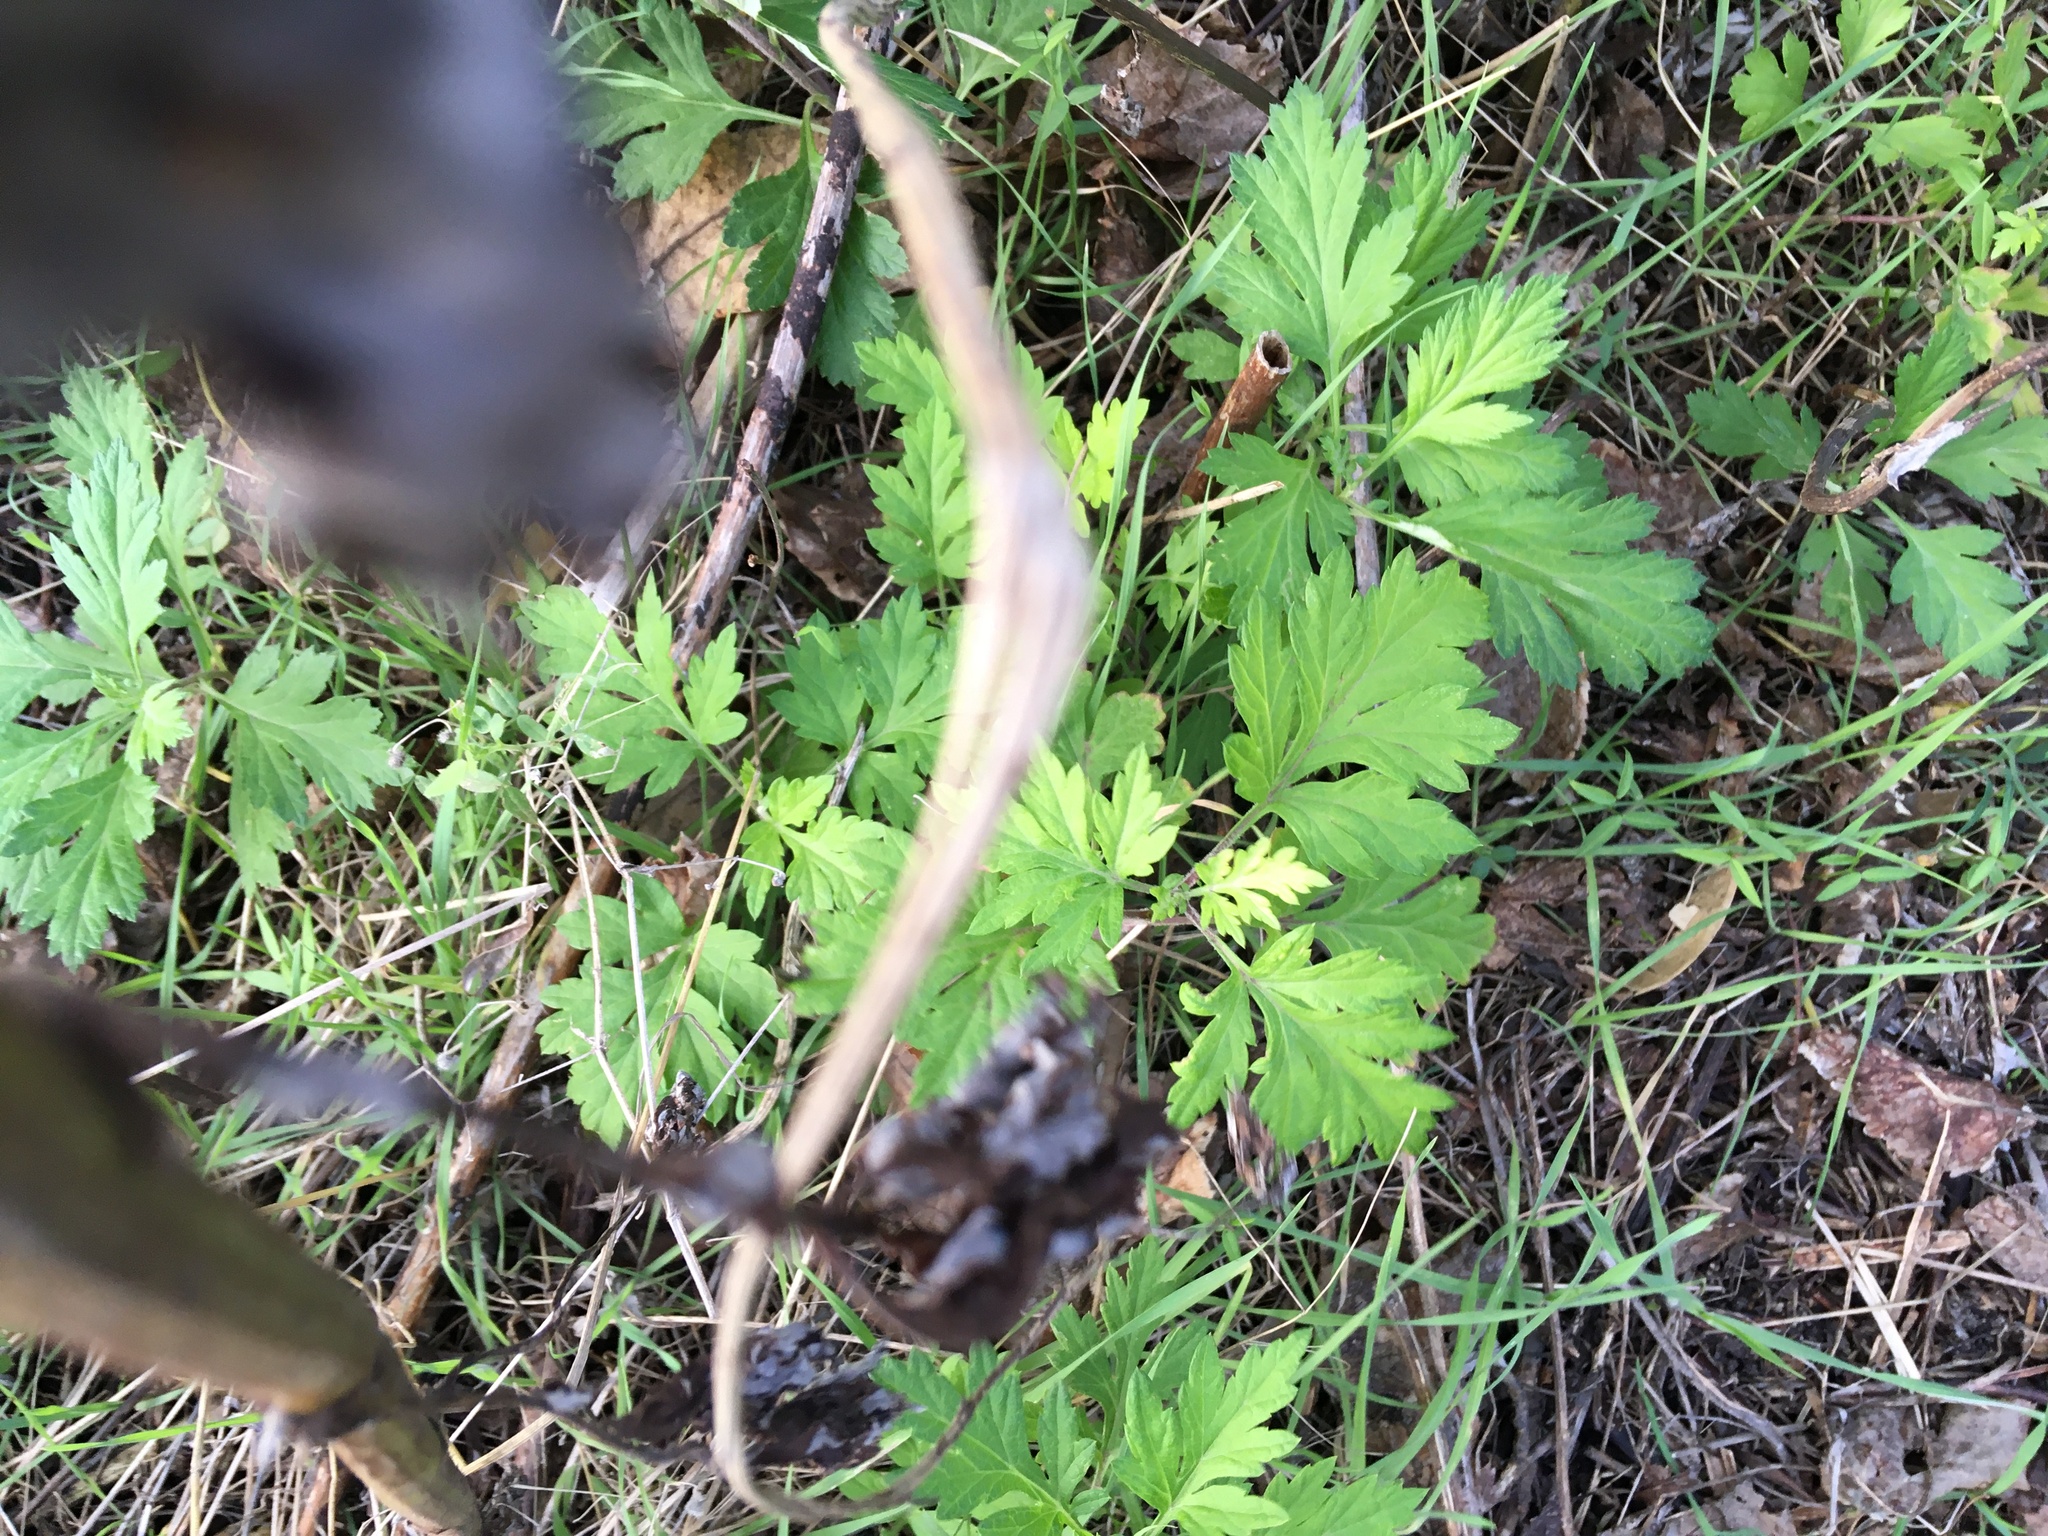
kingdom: Plantae
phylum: Tracheophyta
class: Magnoliopsida
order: Asterales
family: Asteraceae
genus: Artemisia
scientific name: Artemisia vulgaris
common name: Mugwort
